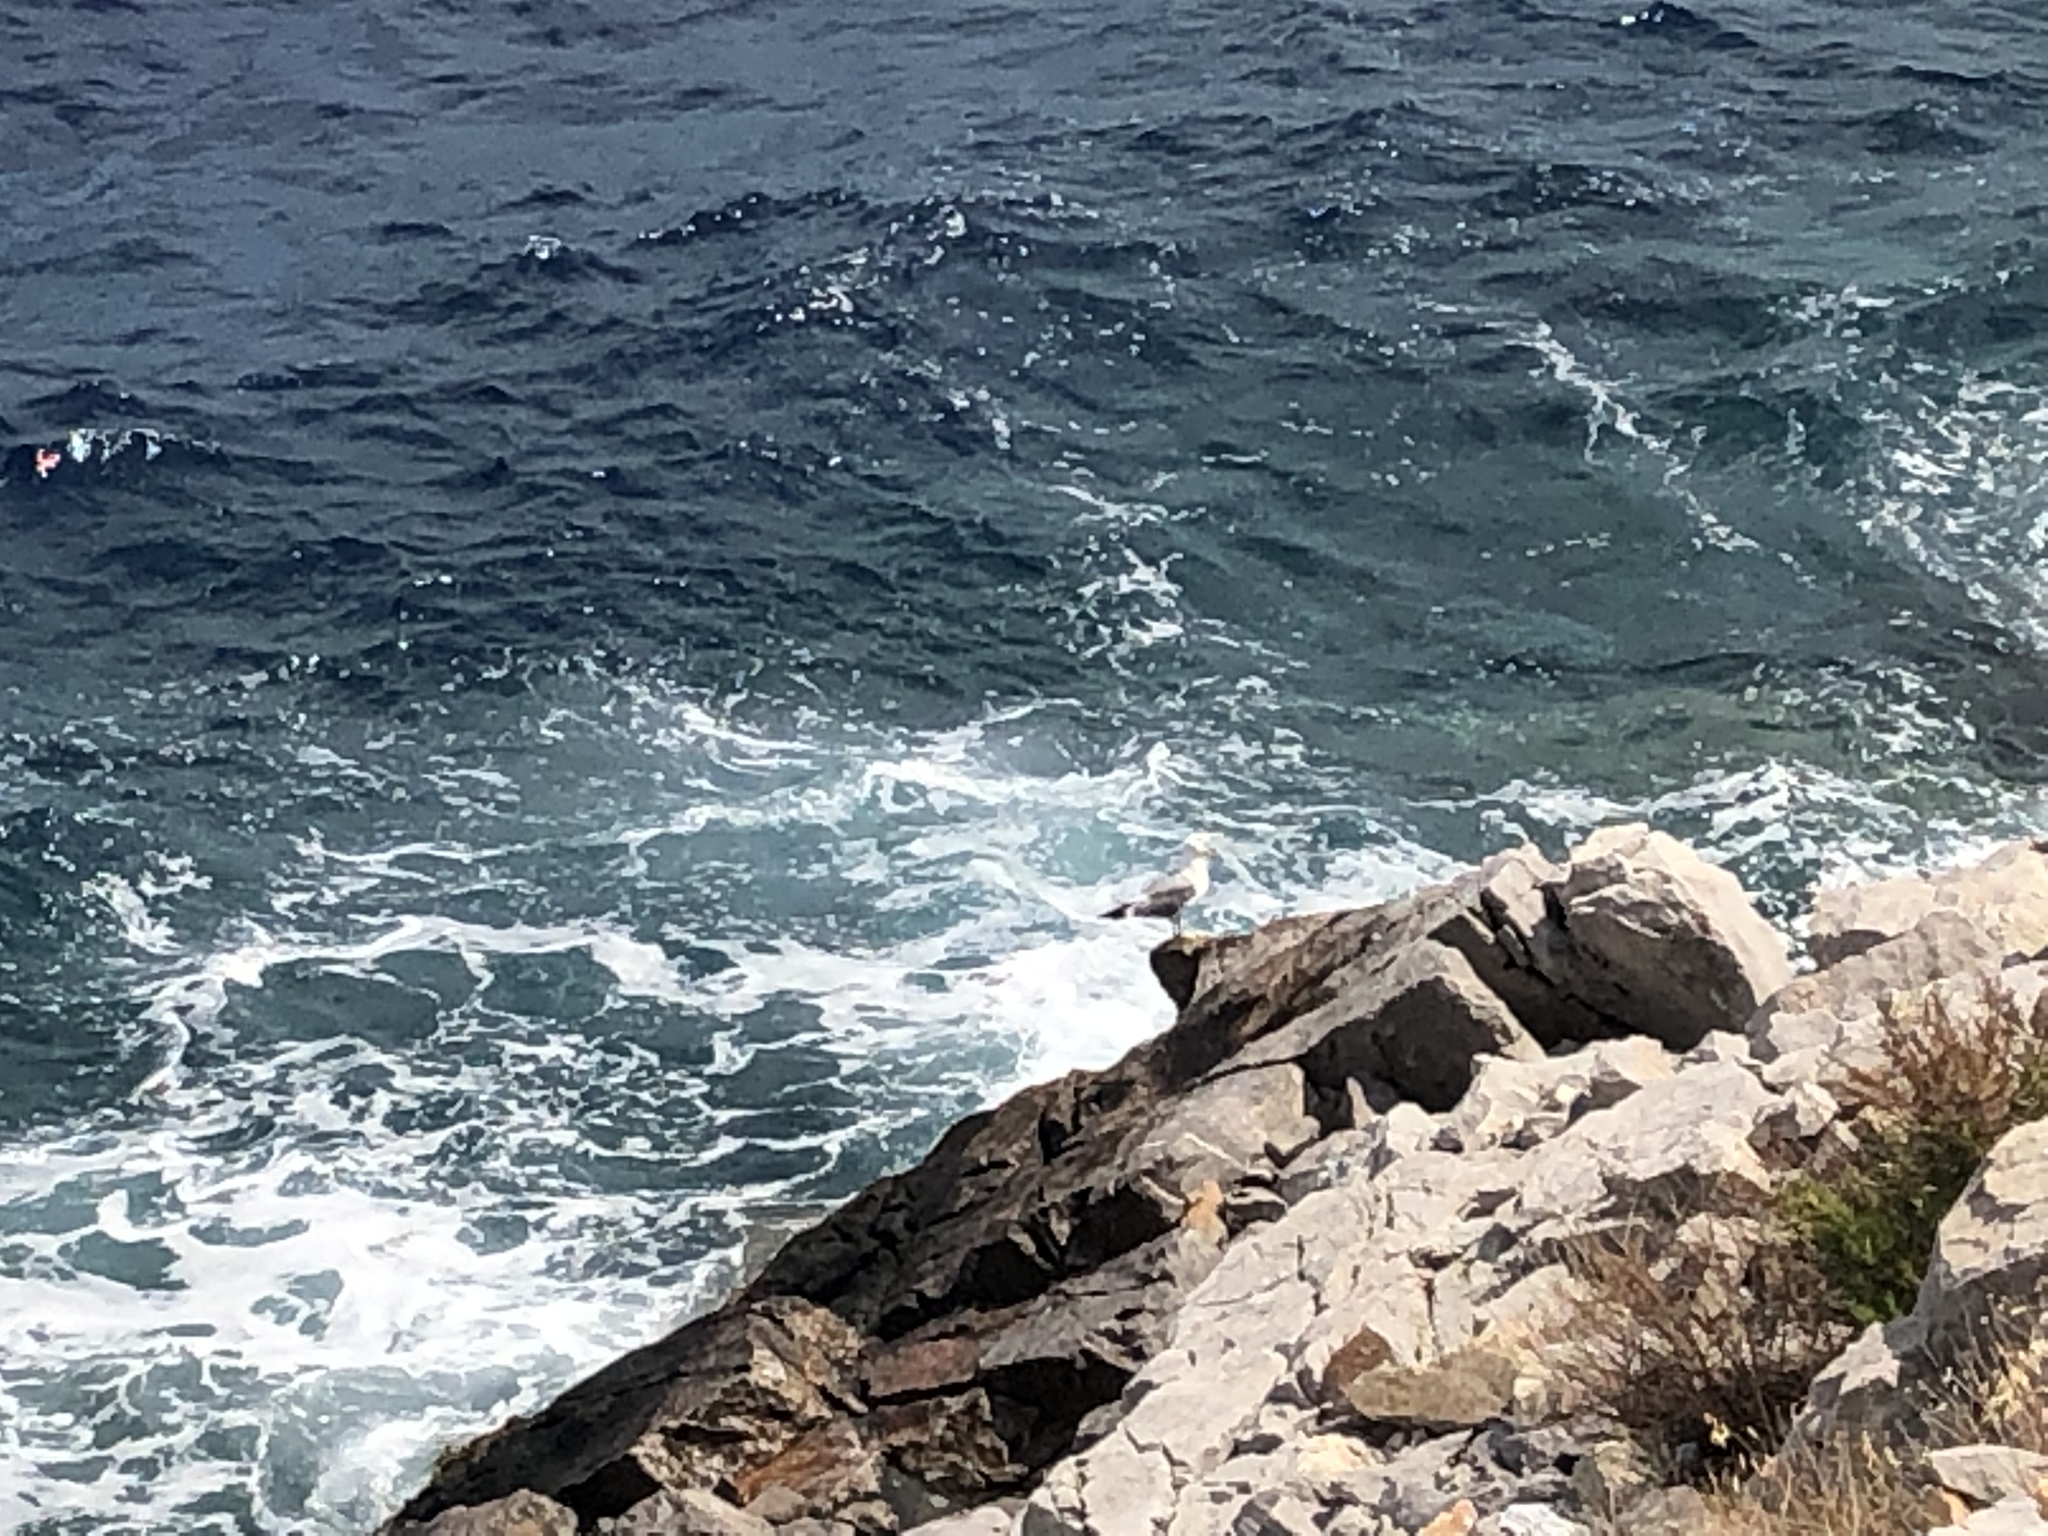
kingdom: Animalia
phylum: Chordata
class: Aves
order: Charadriiformes
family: Laridae
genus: Larus
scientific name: Larus michahellis
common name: Yellow-legged gull
